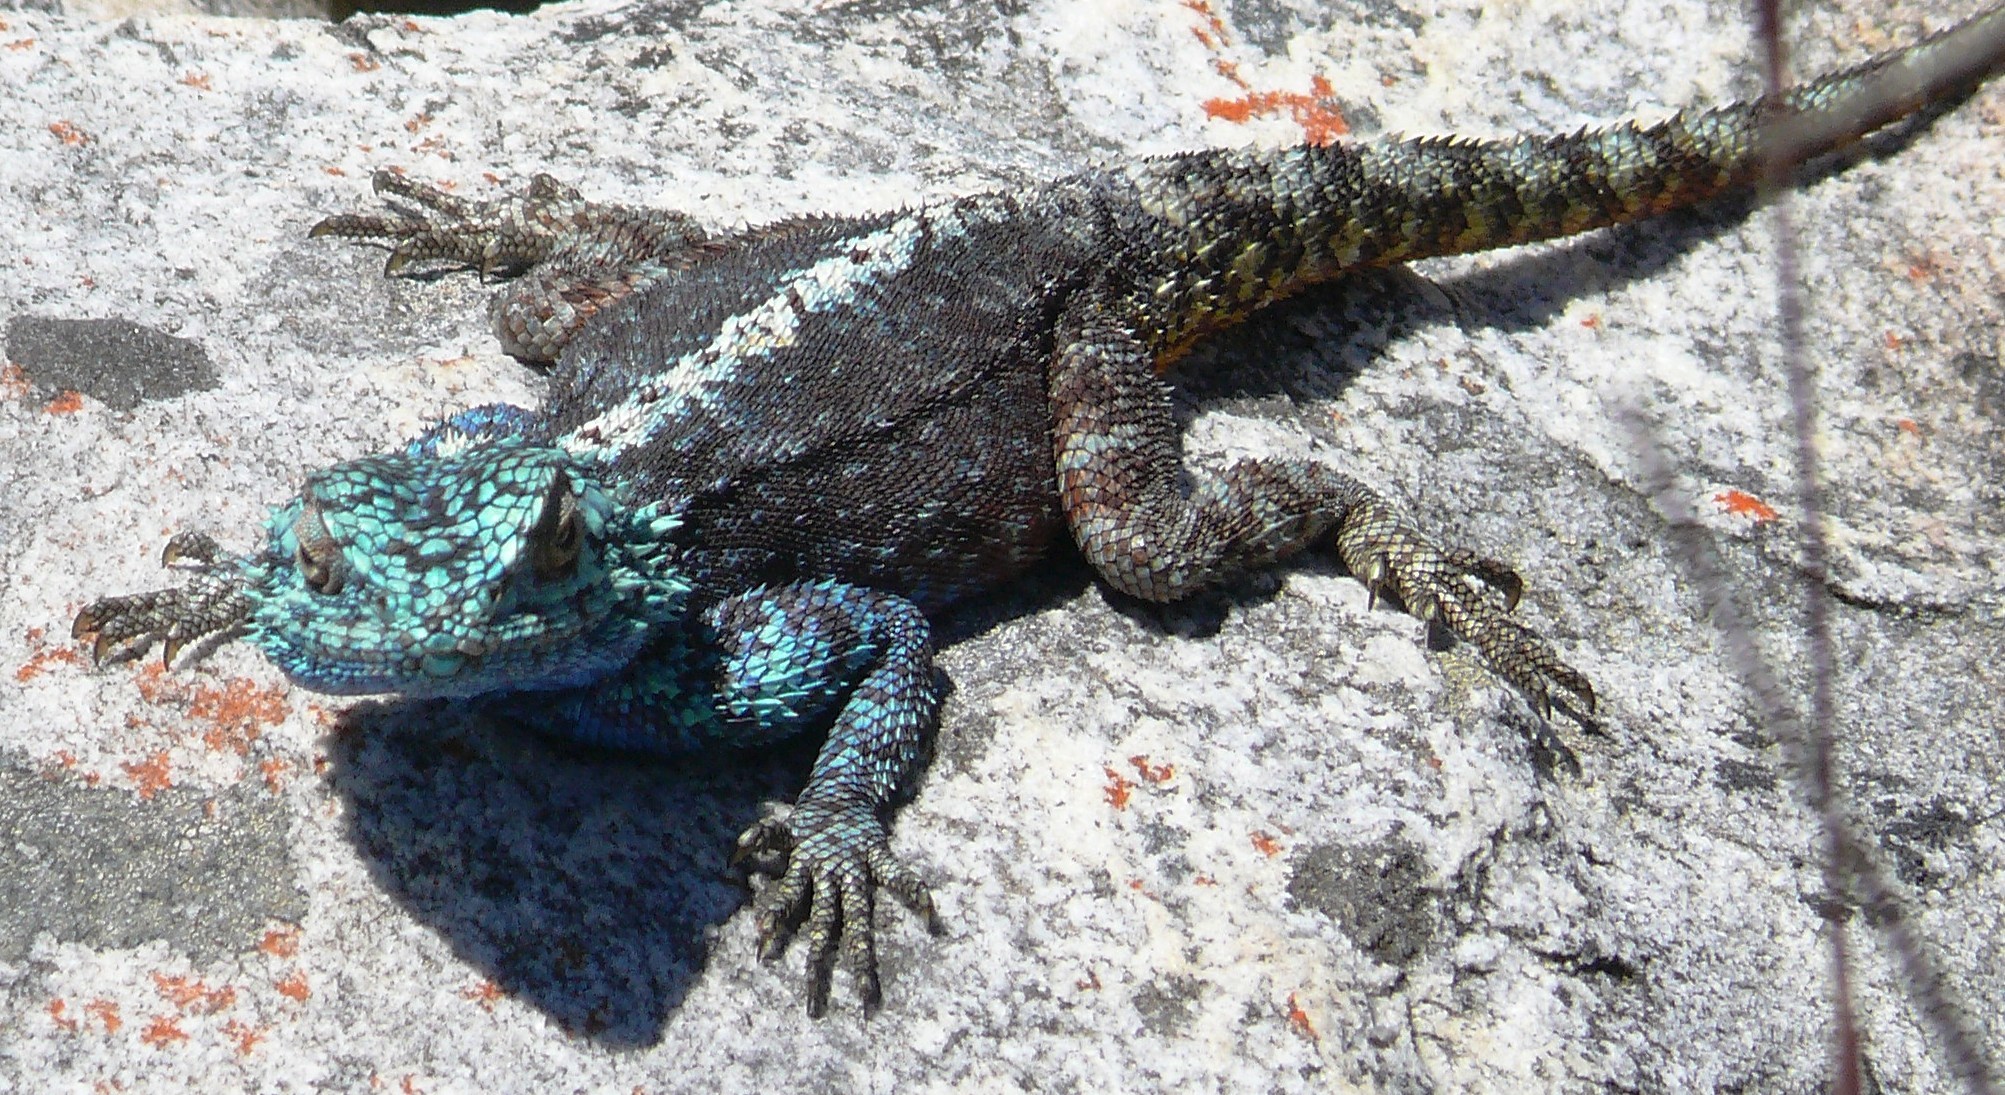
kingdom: Animalia
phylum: Chordata
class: Squamata
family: Agamidae
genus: Agama
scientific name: Agama atra
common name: Southern african rock agama
